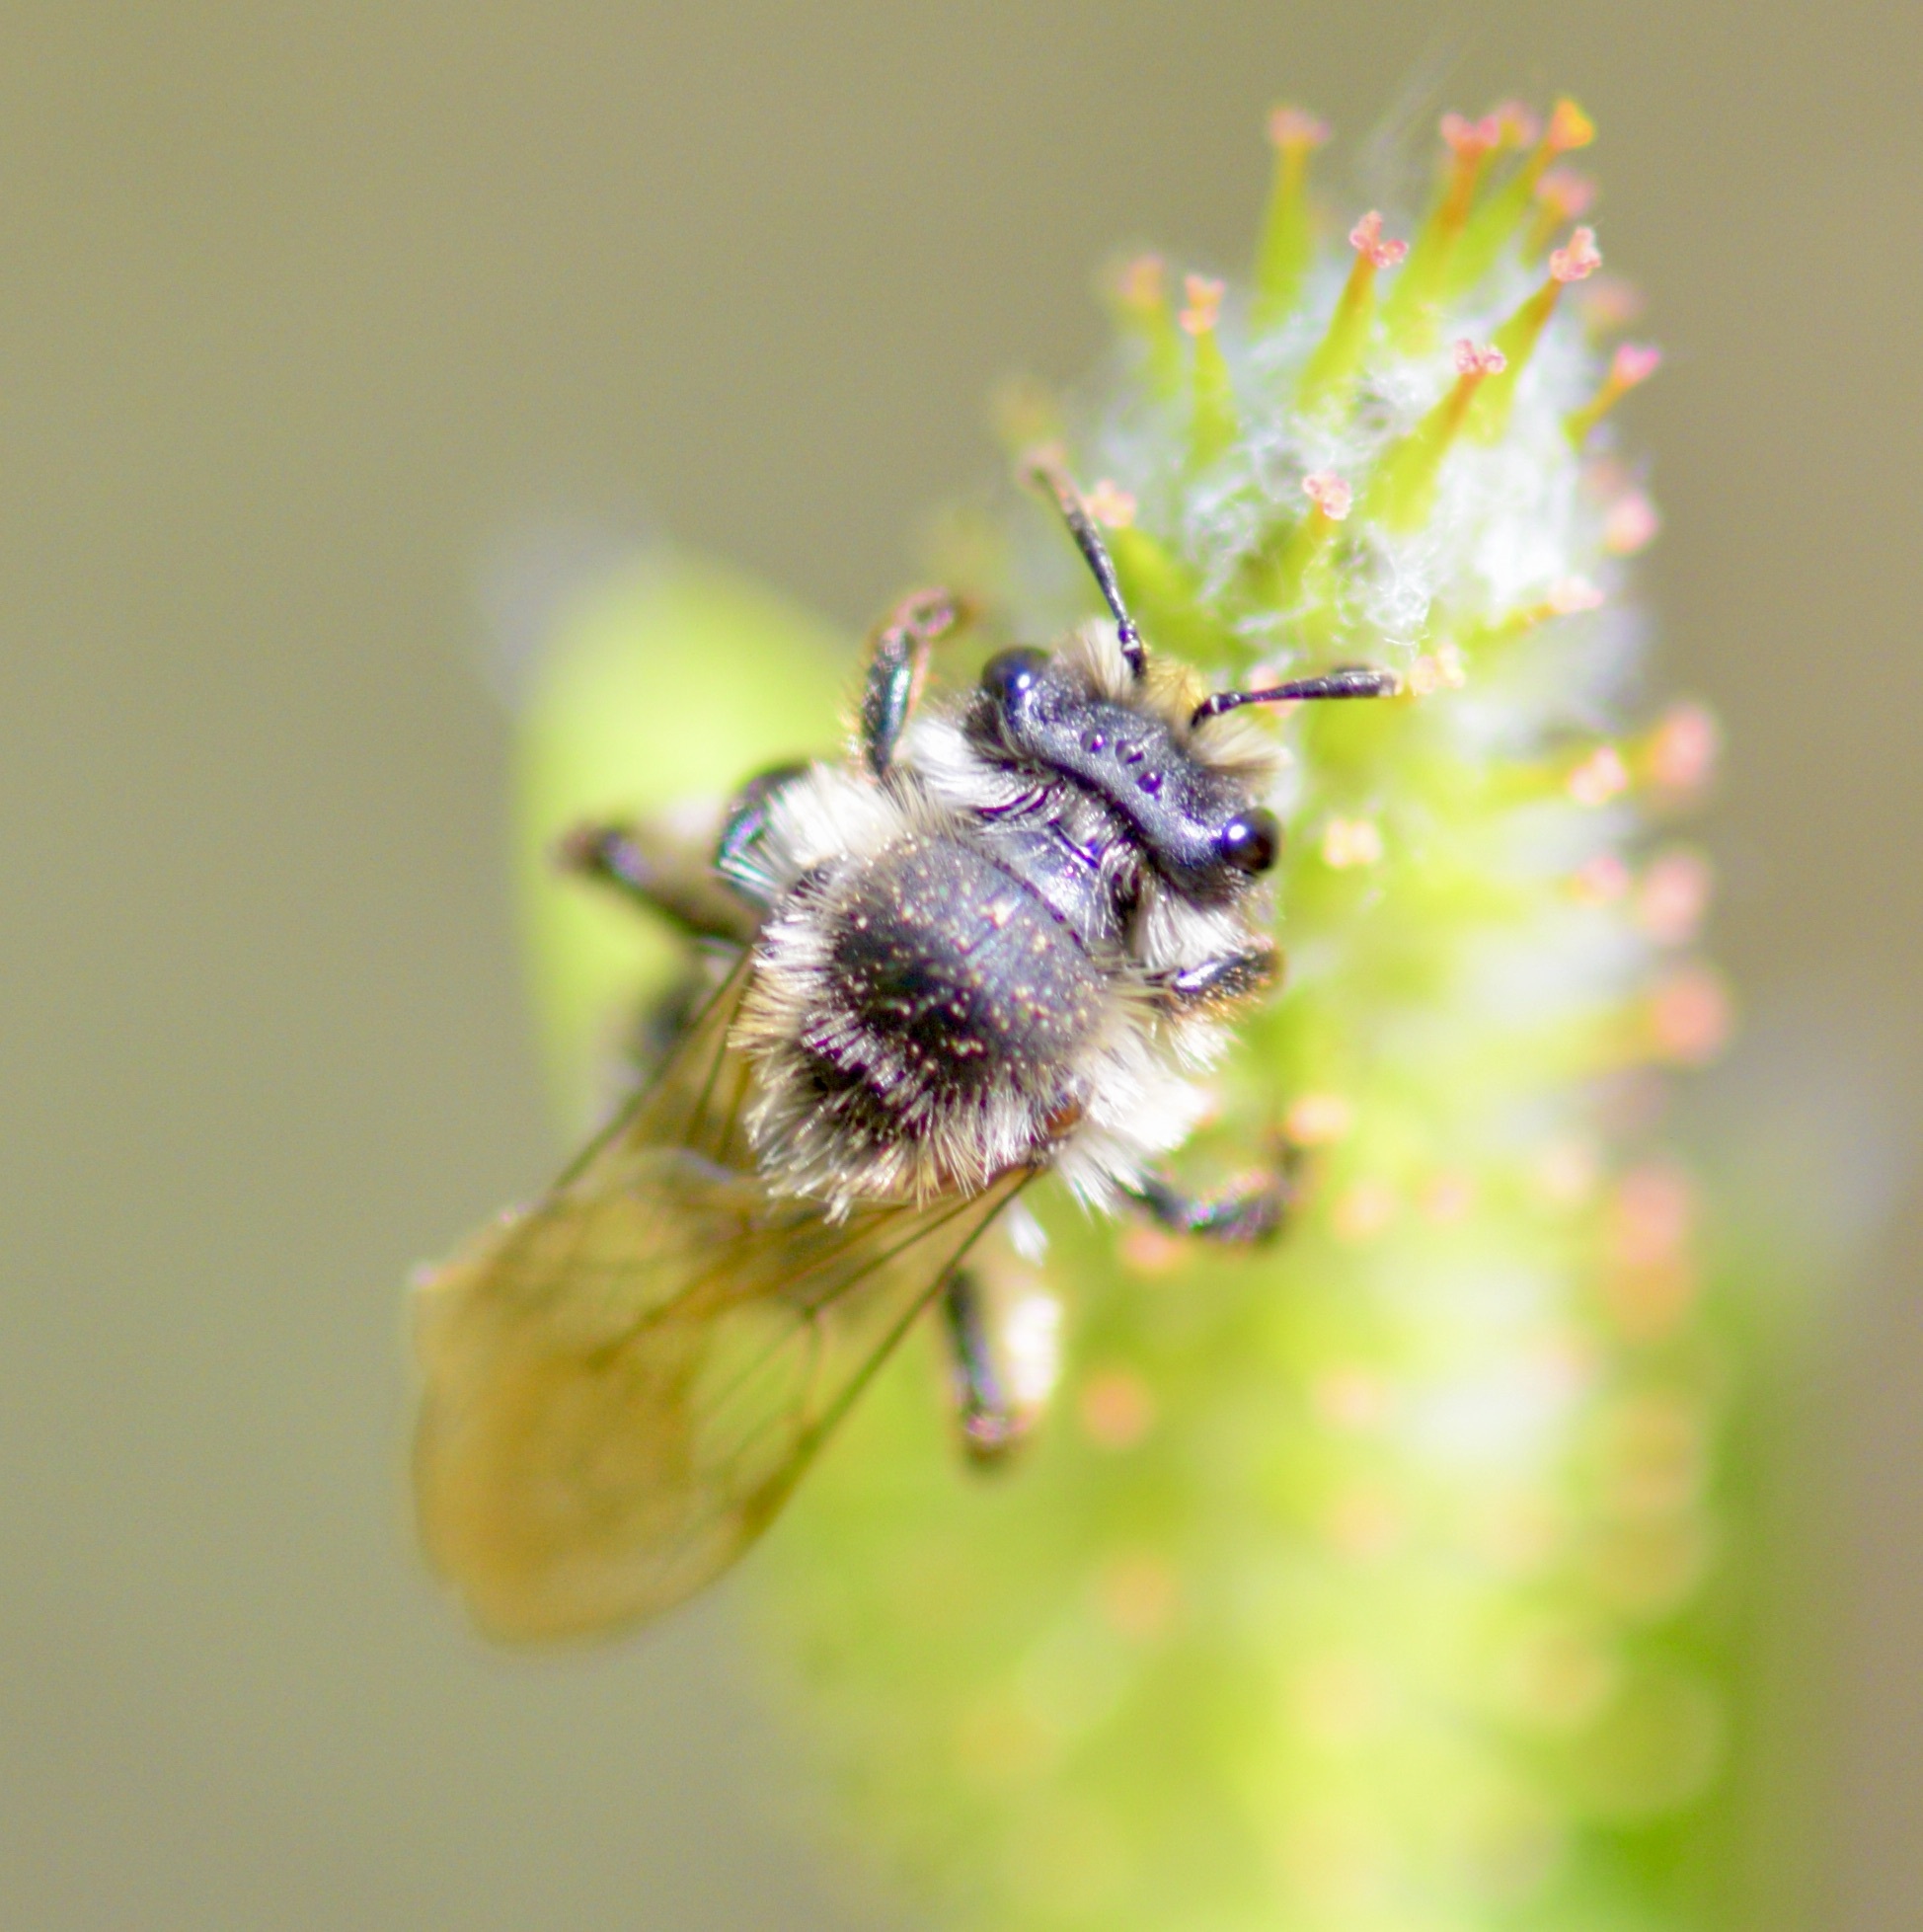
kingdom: Animalia
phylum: Arthropoda
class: Insecta
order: Hymenoptera
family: Andrenidae
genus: Andrena
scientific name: Andrena frigida
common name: Frigid mining bee
